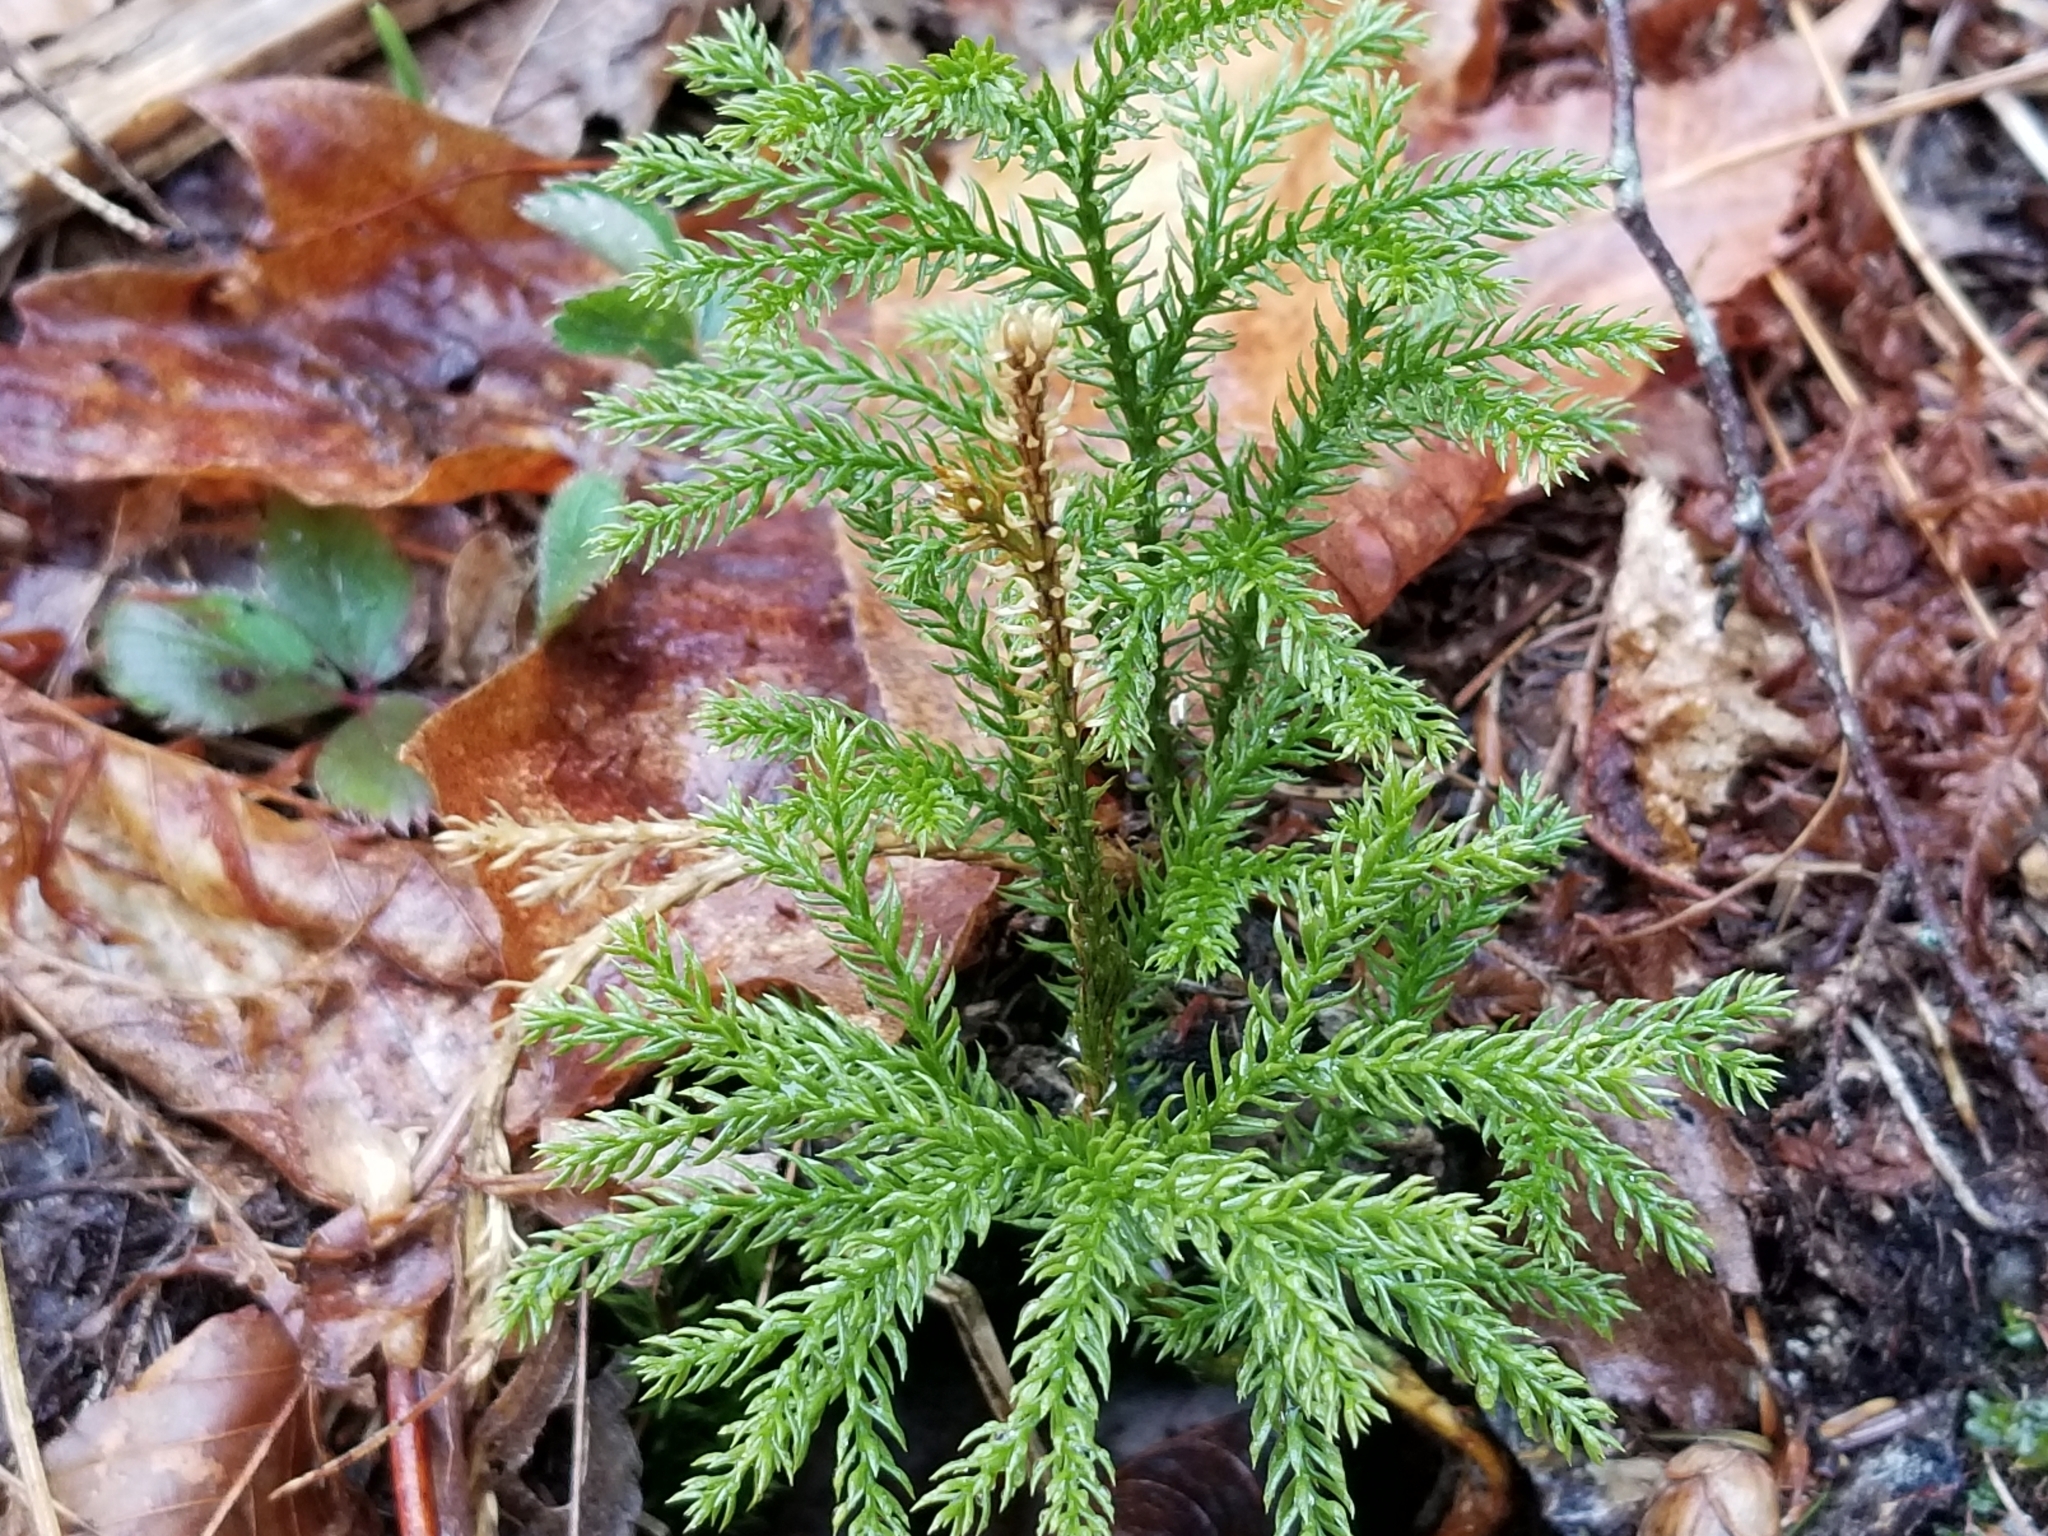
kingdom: Plantae
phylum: Tracheophyta
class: Lycopodiopsida
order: Lycopodiales
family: Lycopodiaceae
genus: Dendrolycopodium
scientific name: Dendrolycopodium dendroideum
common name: Northern tree-clubmoss
